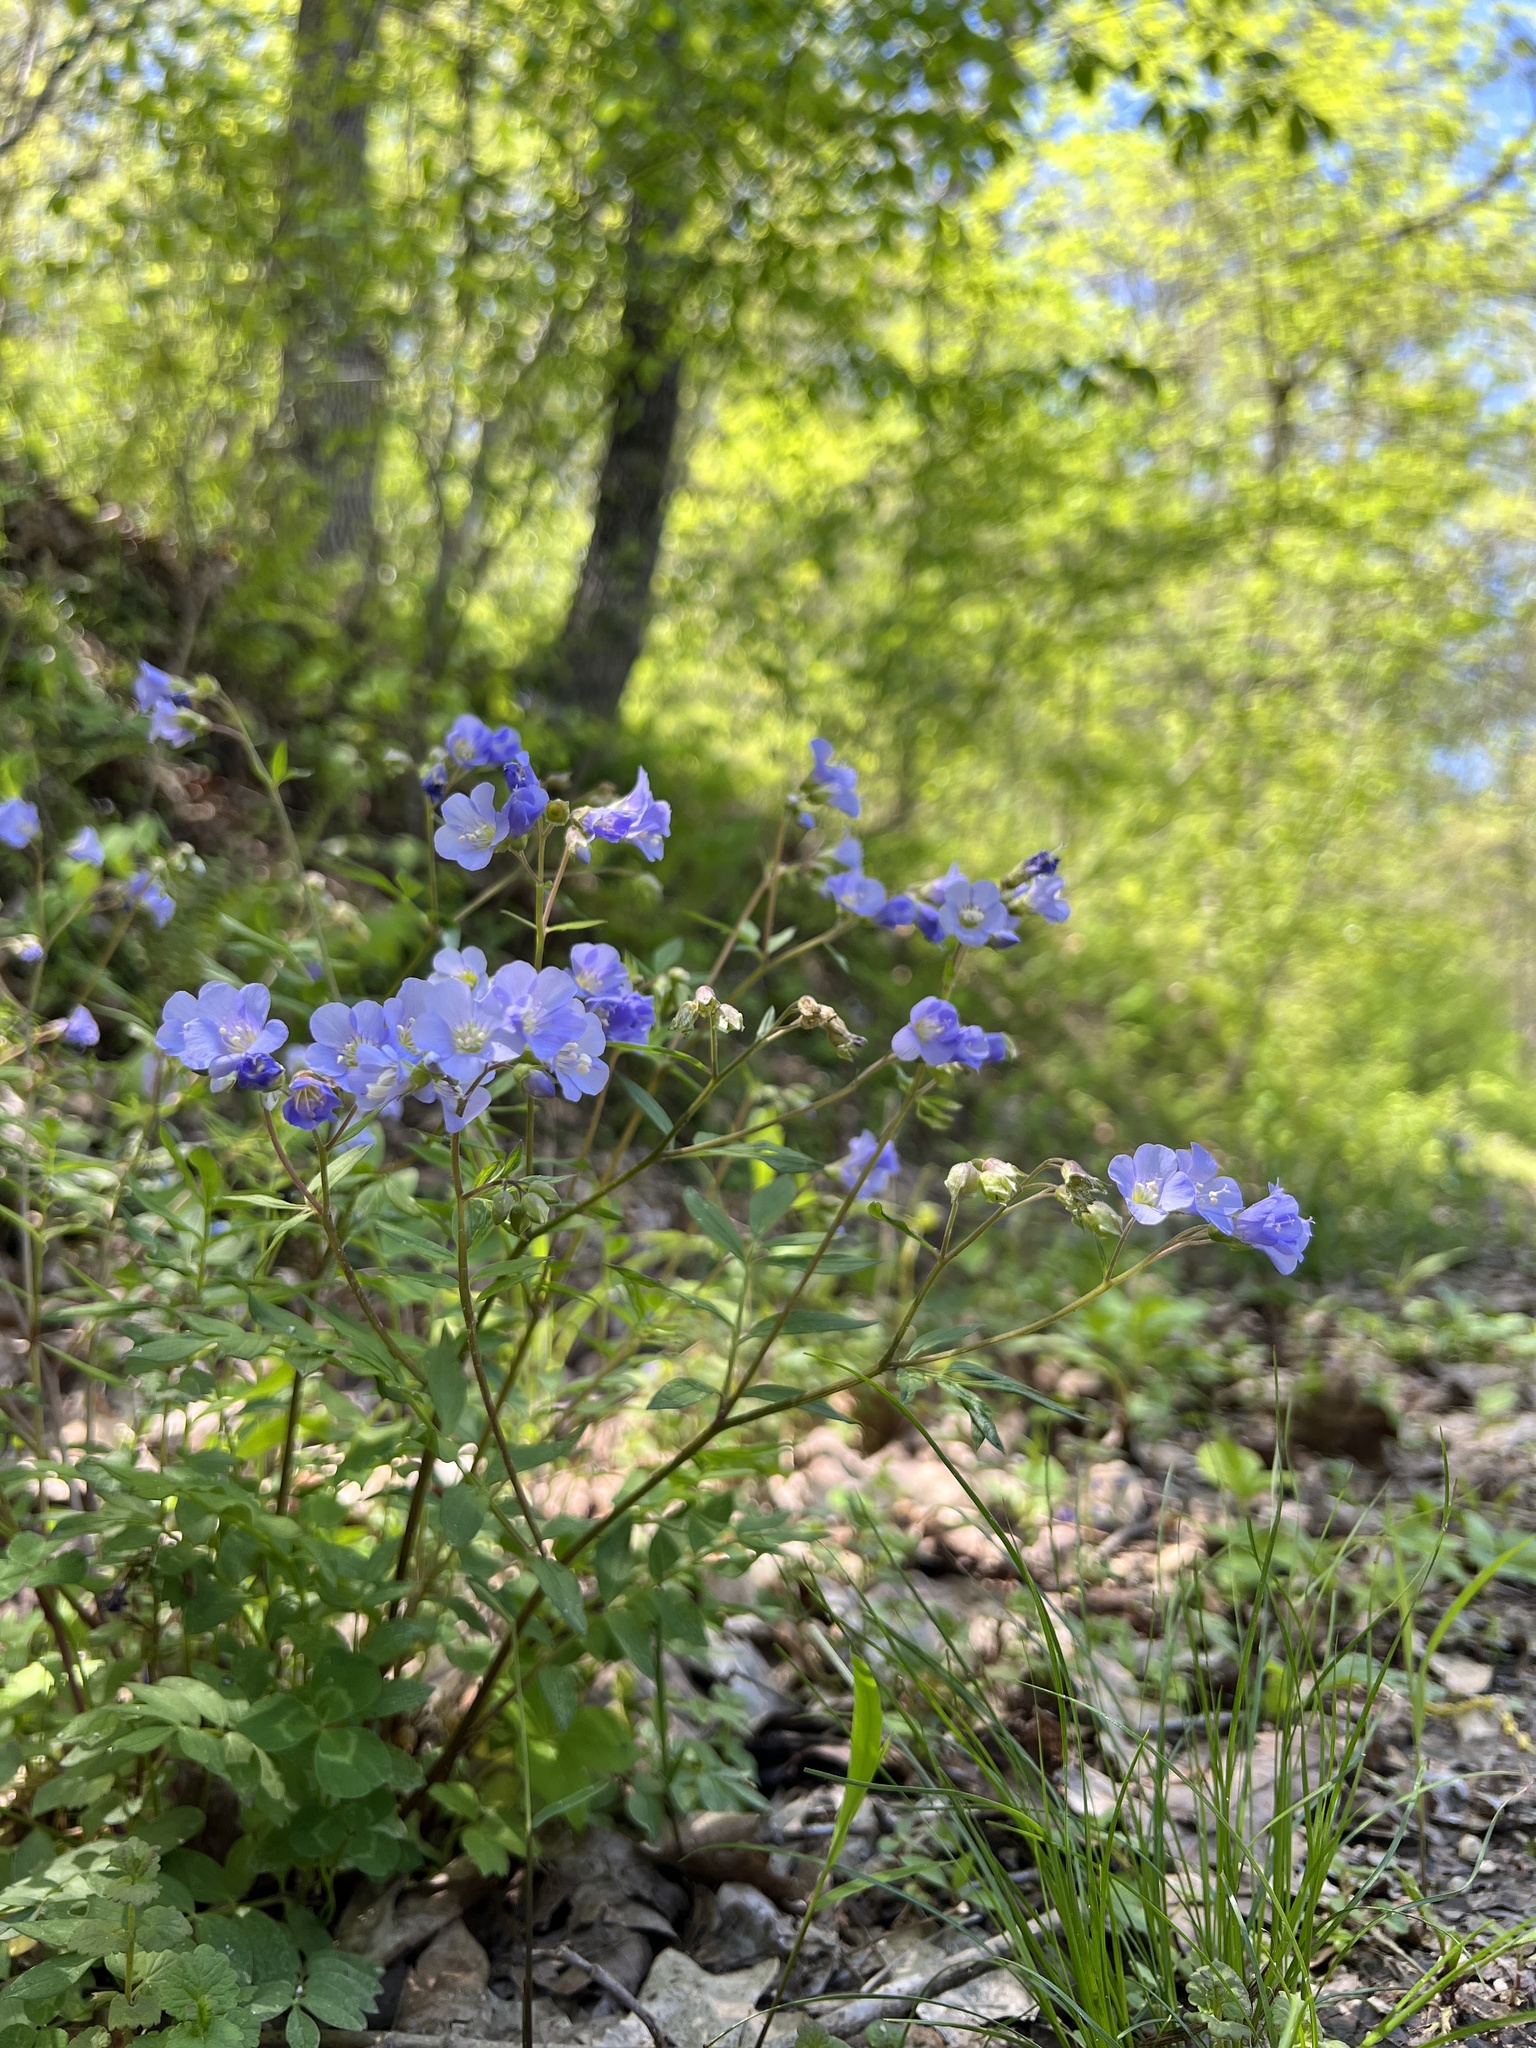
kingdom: Plantae
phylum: Tracheophyta
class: Magnoliopsida
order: Ericales
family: Polemoniaceae
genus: Polemonium
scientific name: Polemonium reptans
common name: Creeping jacob's-ladder
